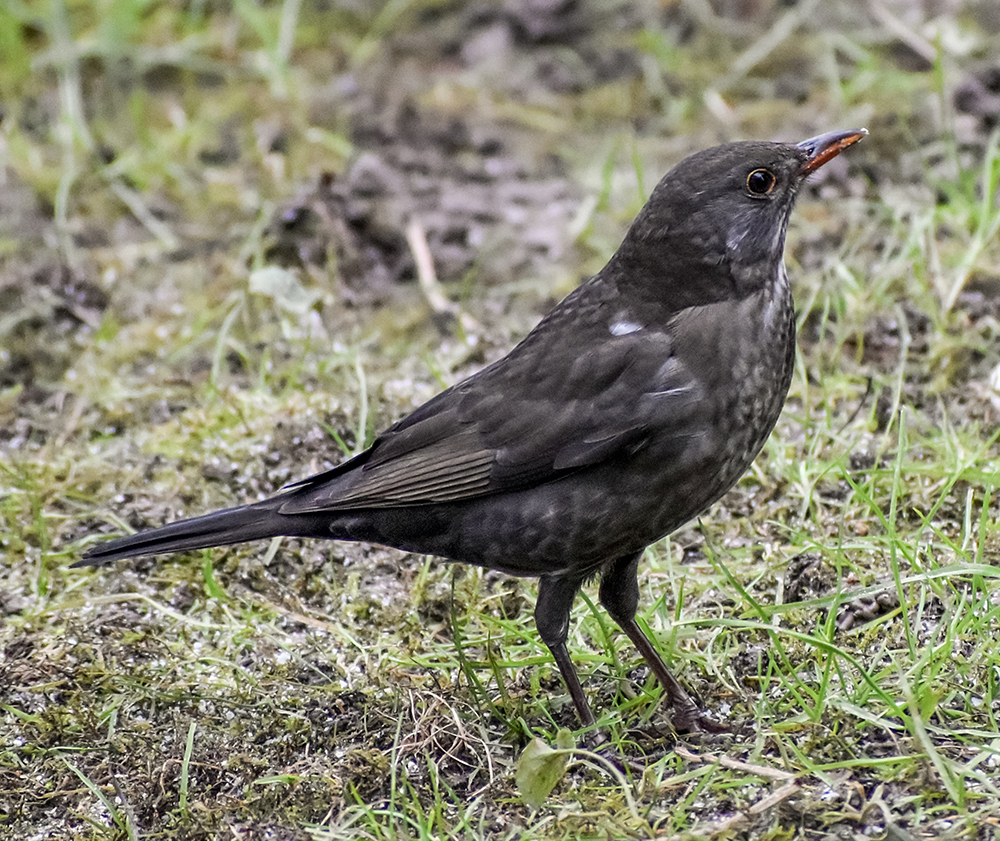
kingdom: Animalia
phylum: Chordata
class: Aves
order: Passeriformes
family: Turdidae
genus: Turdus
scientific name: Turdus merula
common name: Common blackbird
